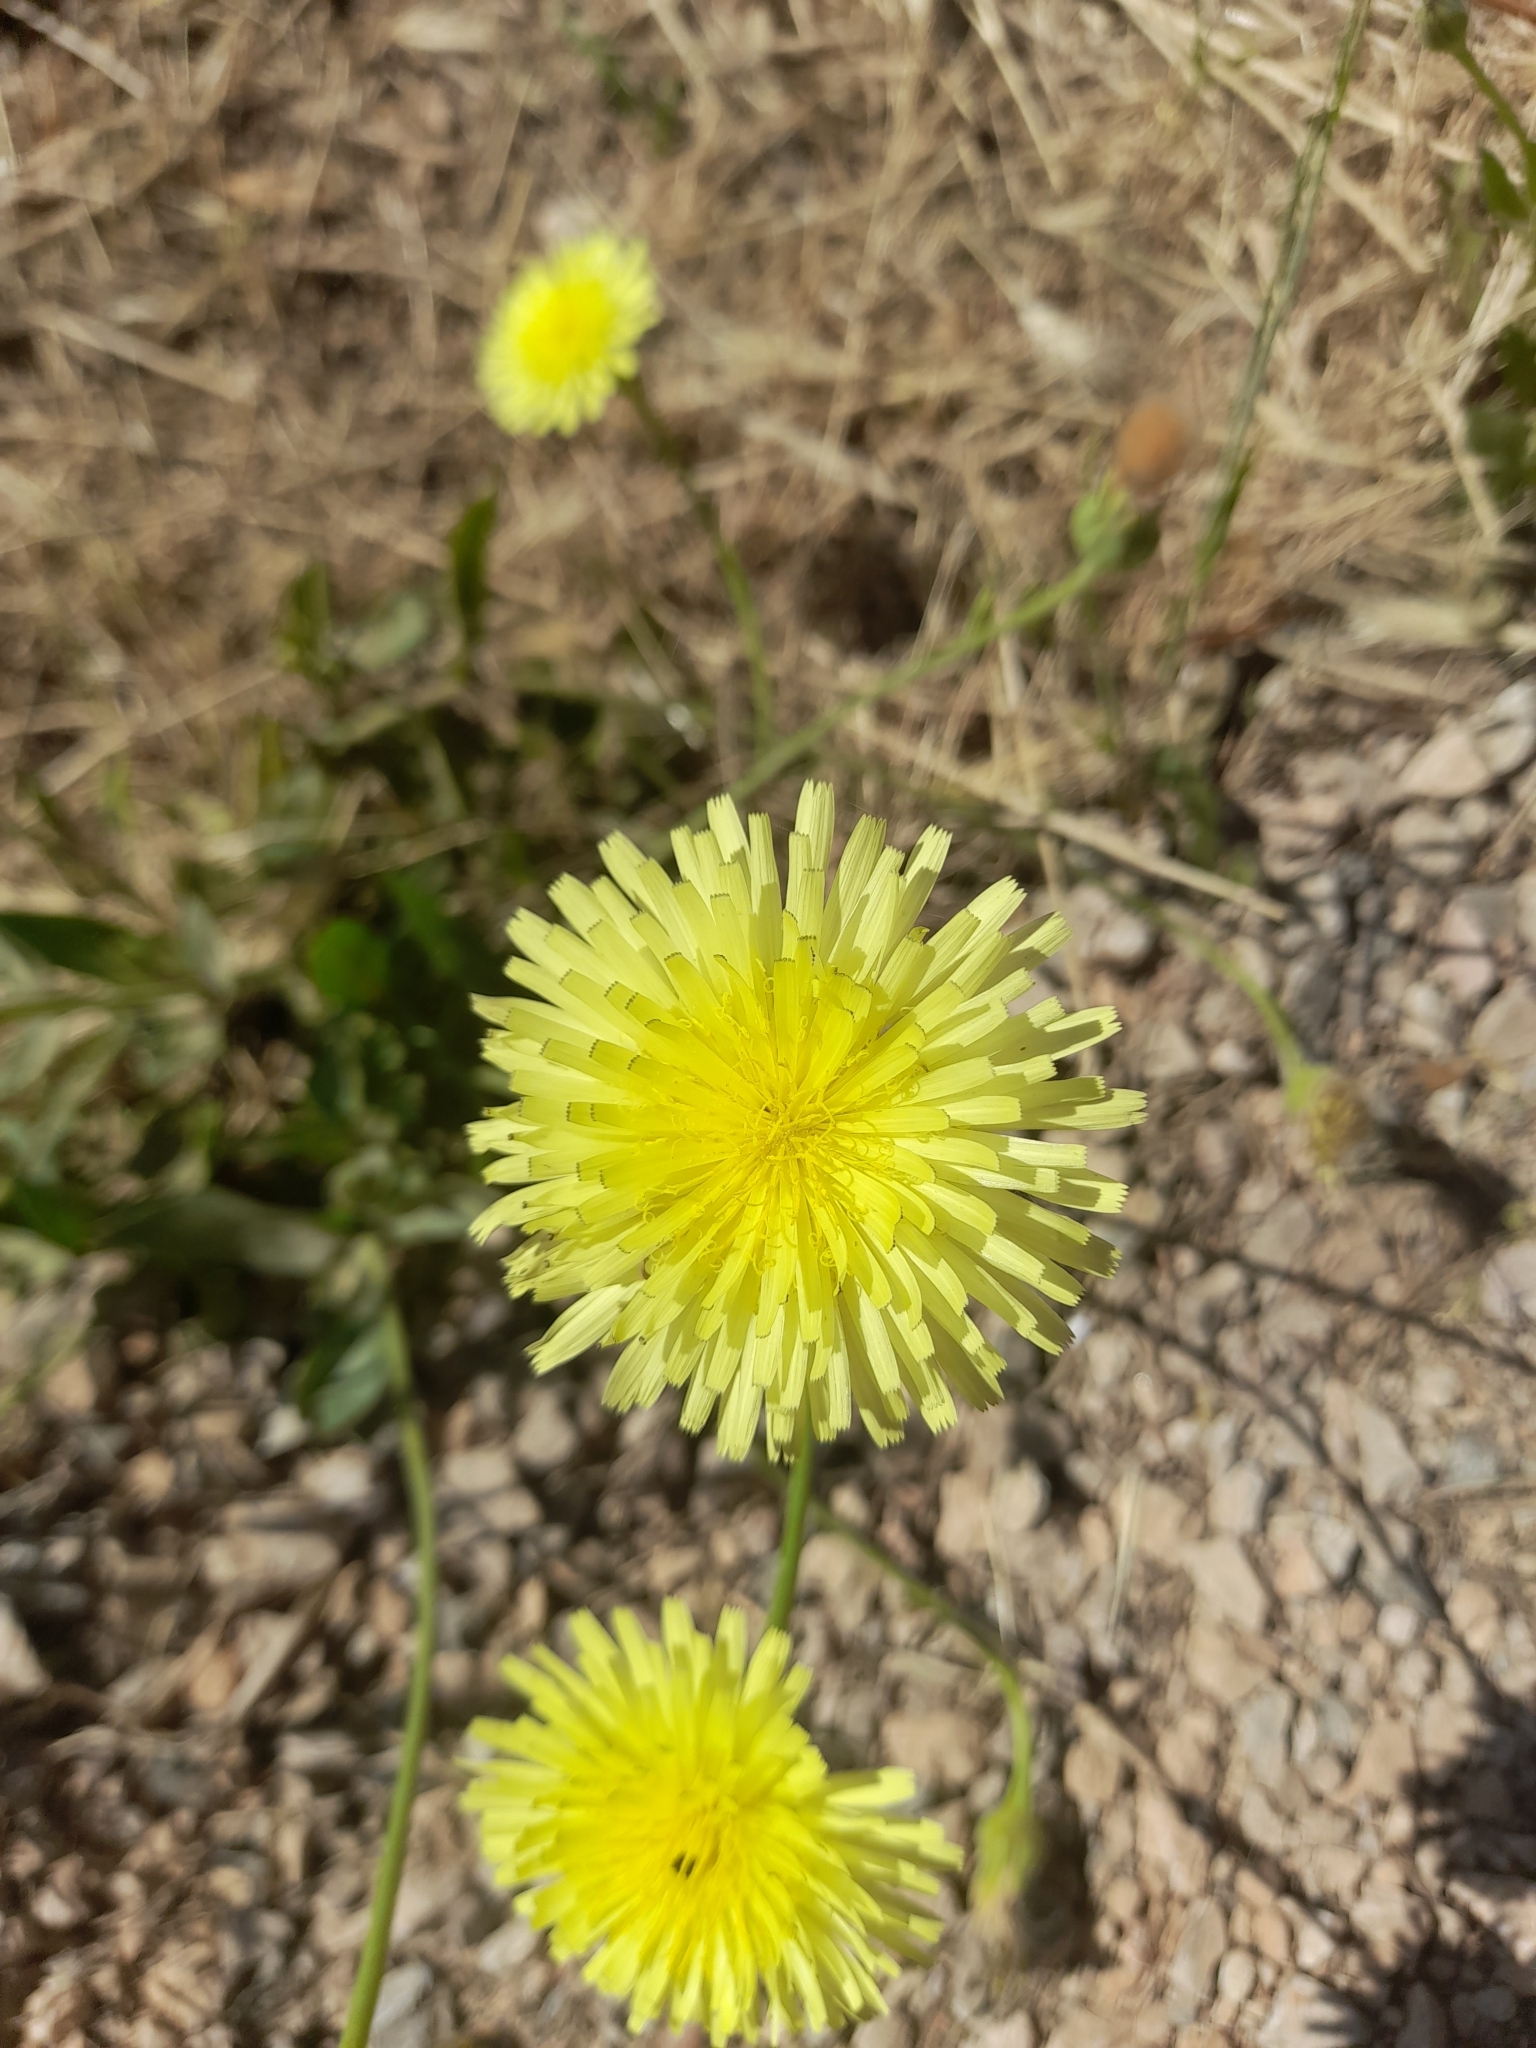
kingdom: Plantae
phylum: Tracheophyta
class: Magnoliopsida
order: Asterales
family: Asteraceae
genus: Urospermum
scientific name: Urospermum dalechampii
